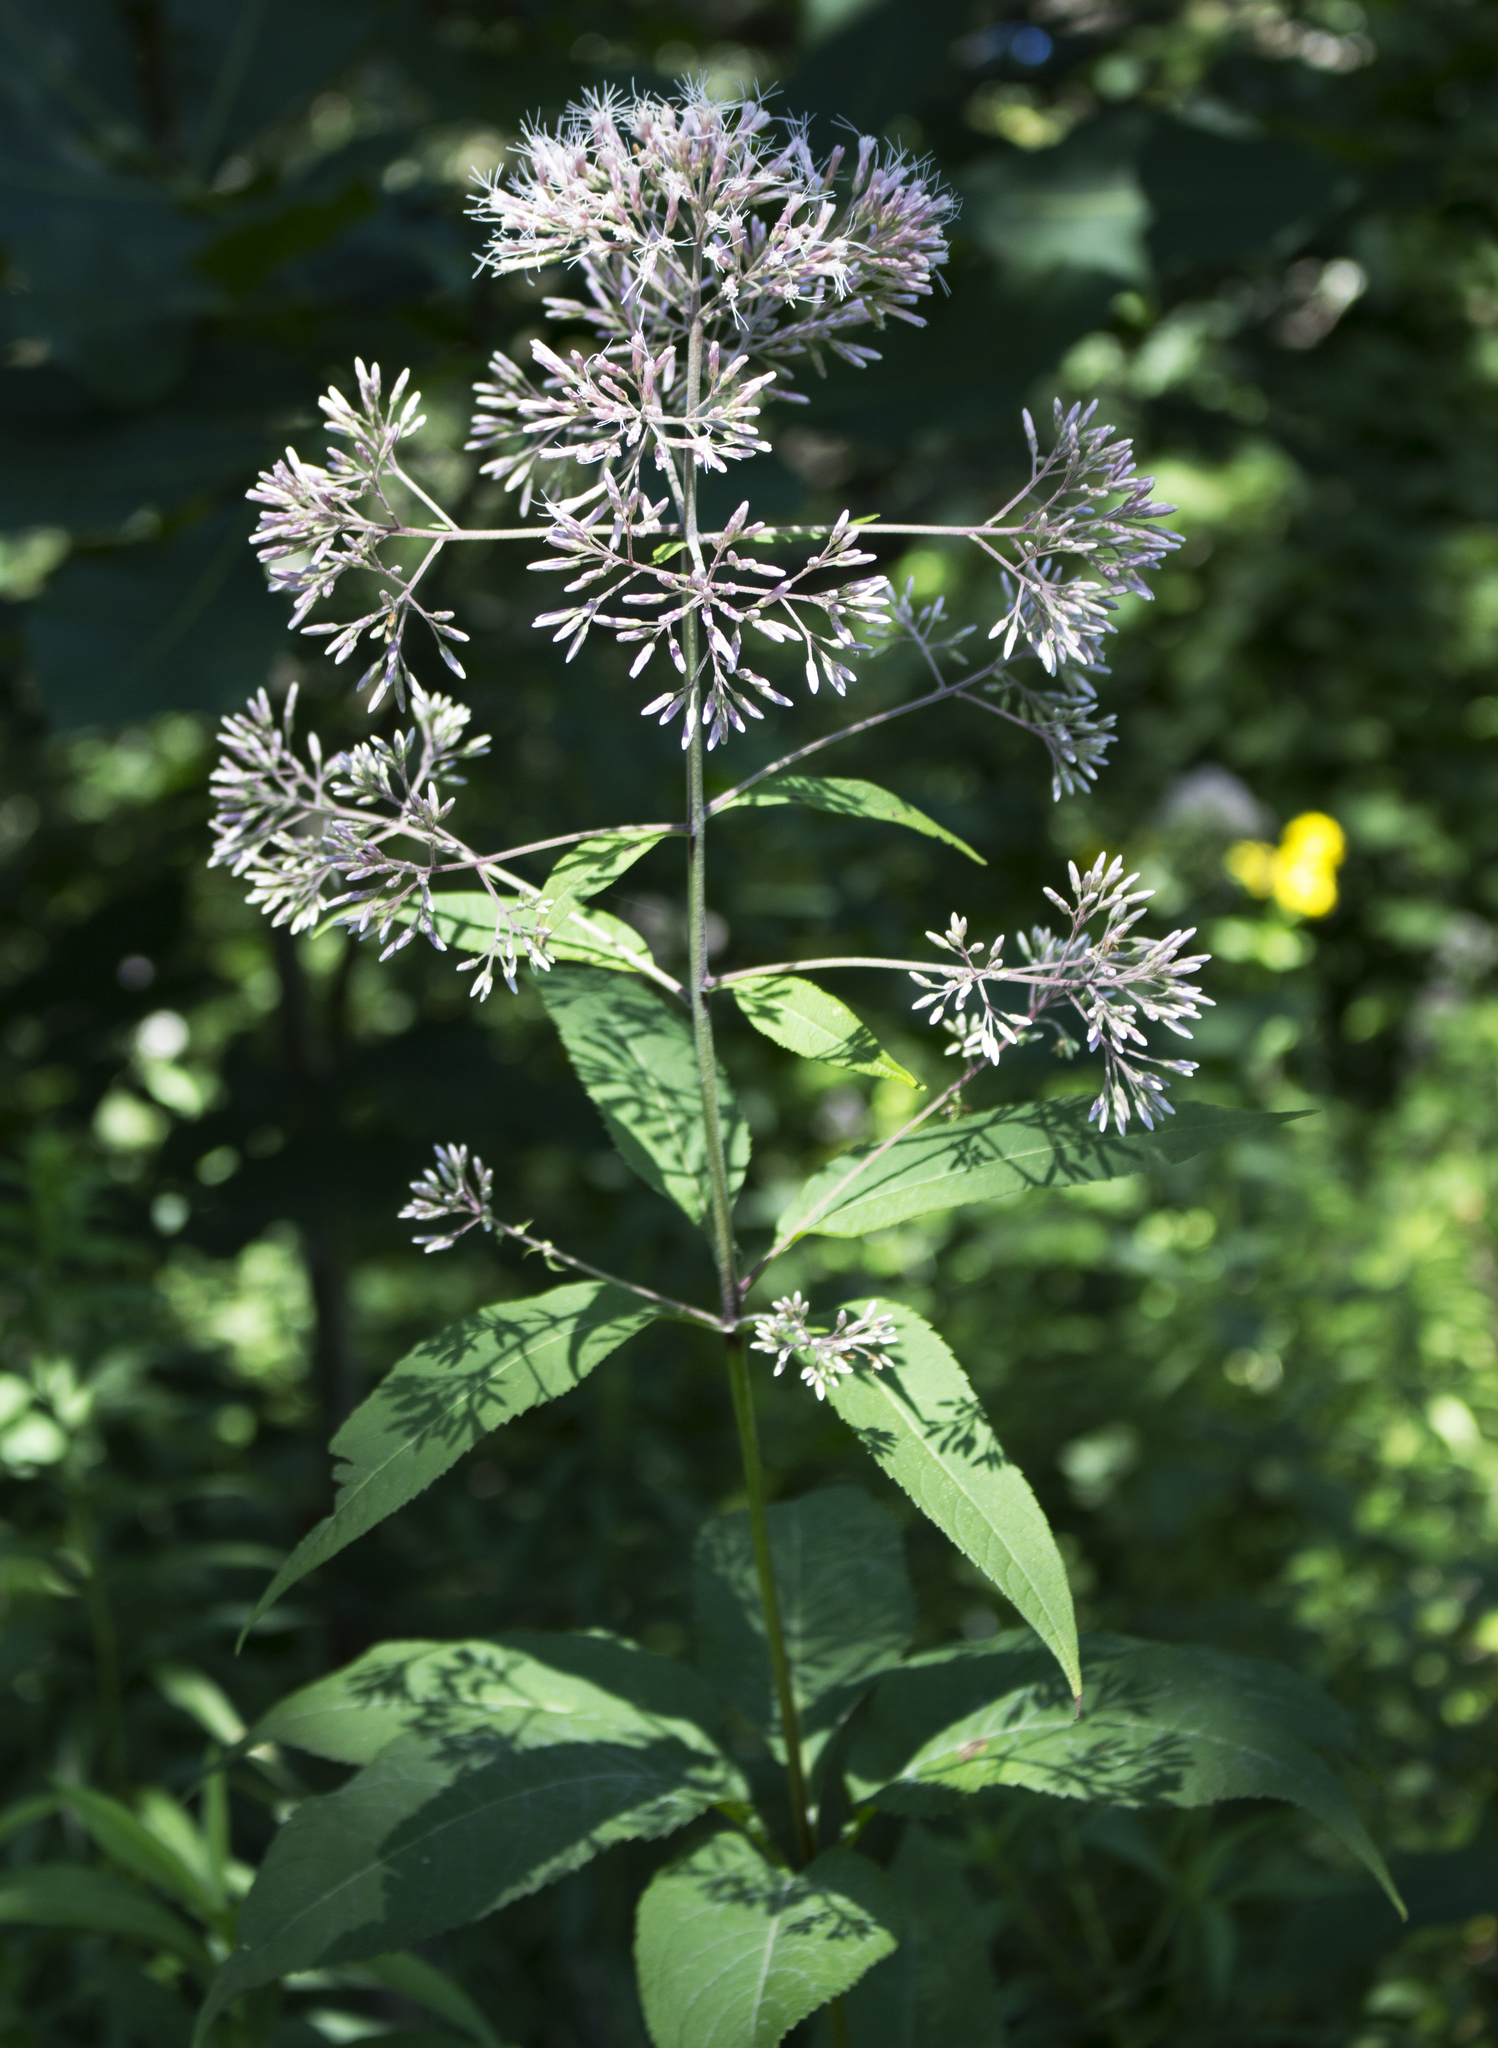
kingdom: Plantae
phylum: Tracheophyta
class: Magnoliopsida
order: Asterales
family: Asteraceae
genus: Eutrochium
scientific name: Eutrochium purpureum
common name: Gravelroot
